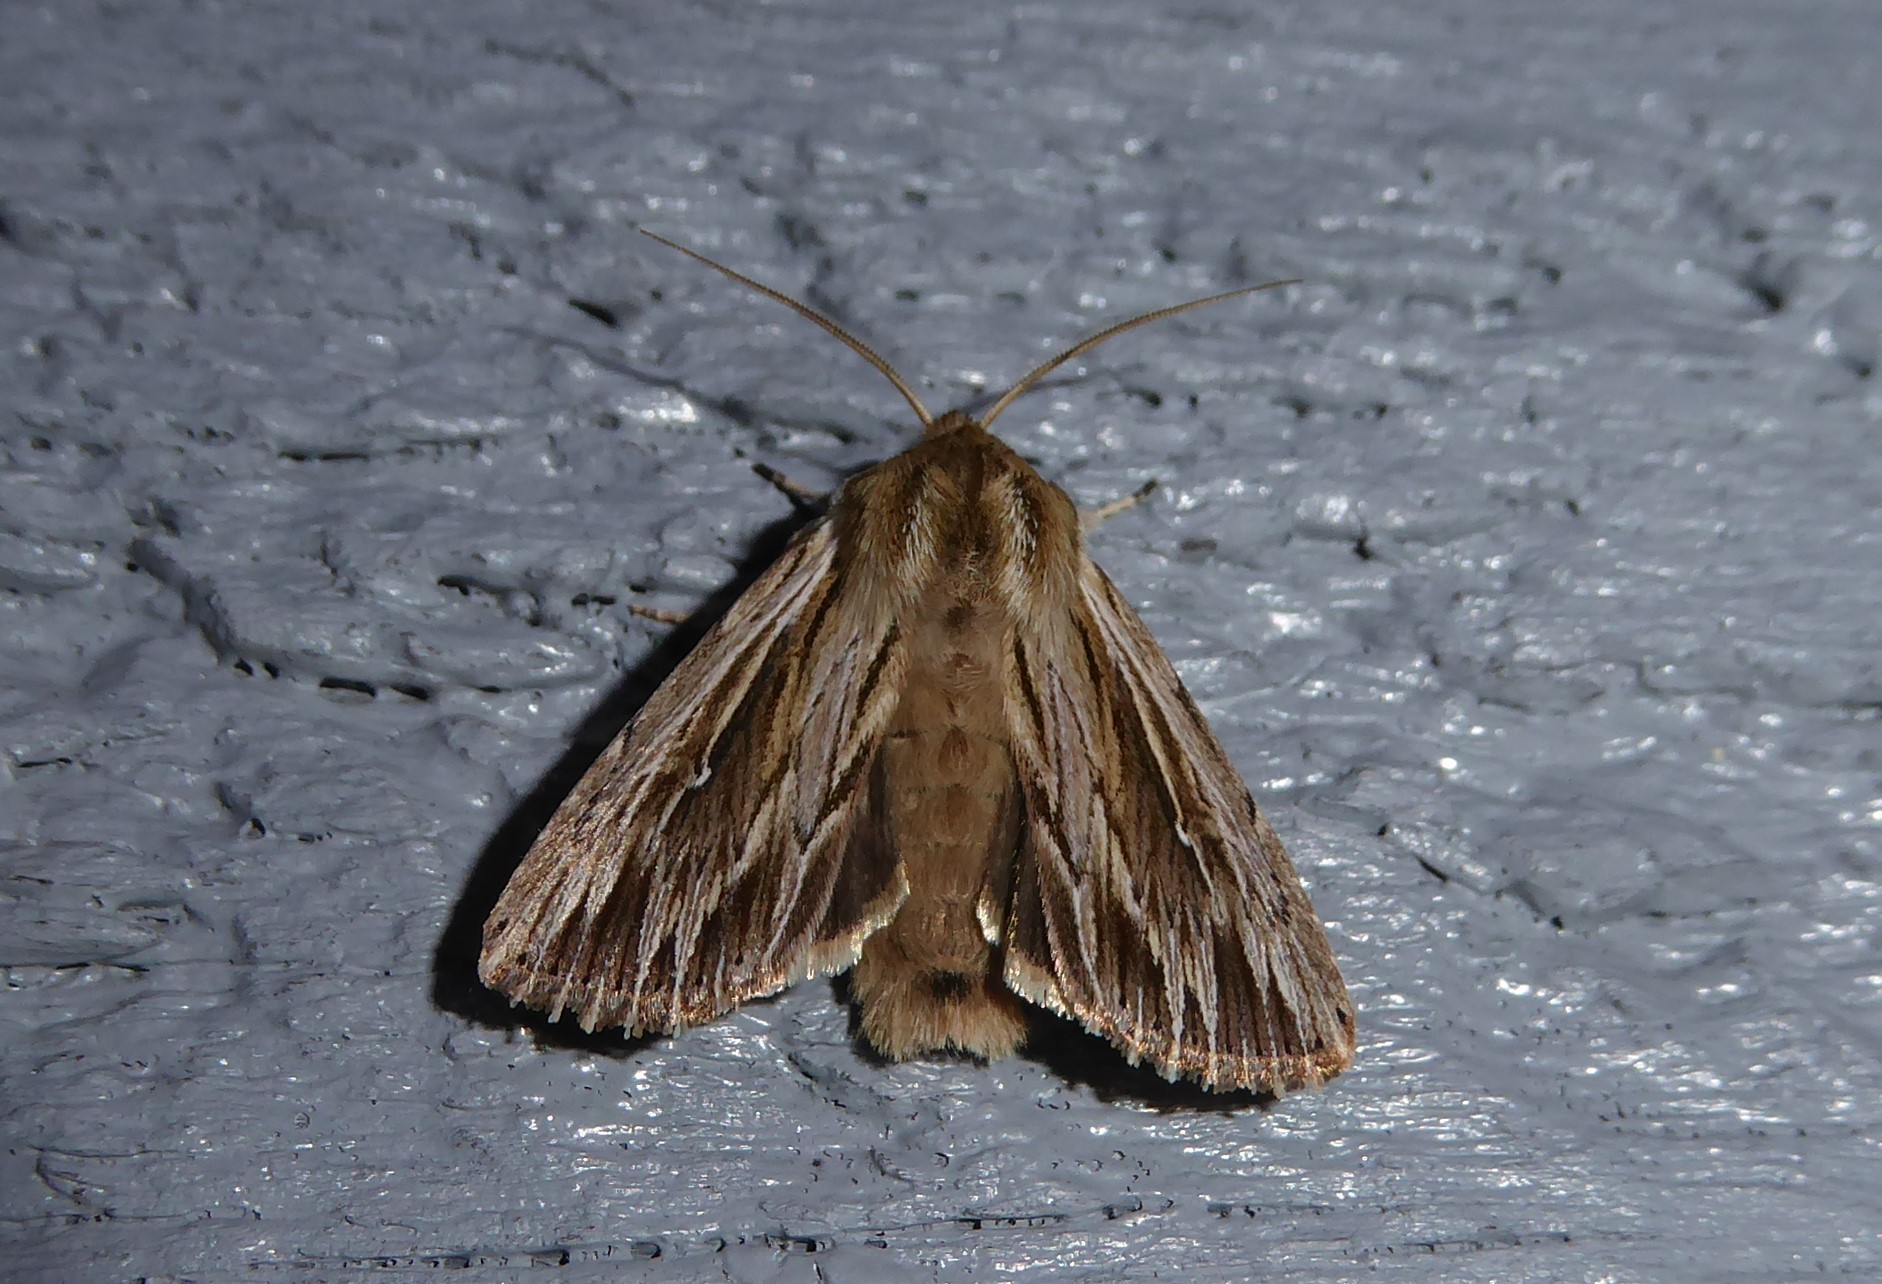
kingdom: Animalia
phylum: Arthropoda
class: Insecta
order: Lepidoptera
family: Noctuidae
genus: Persectania
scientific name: Persectania aversa
